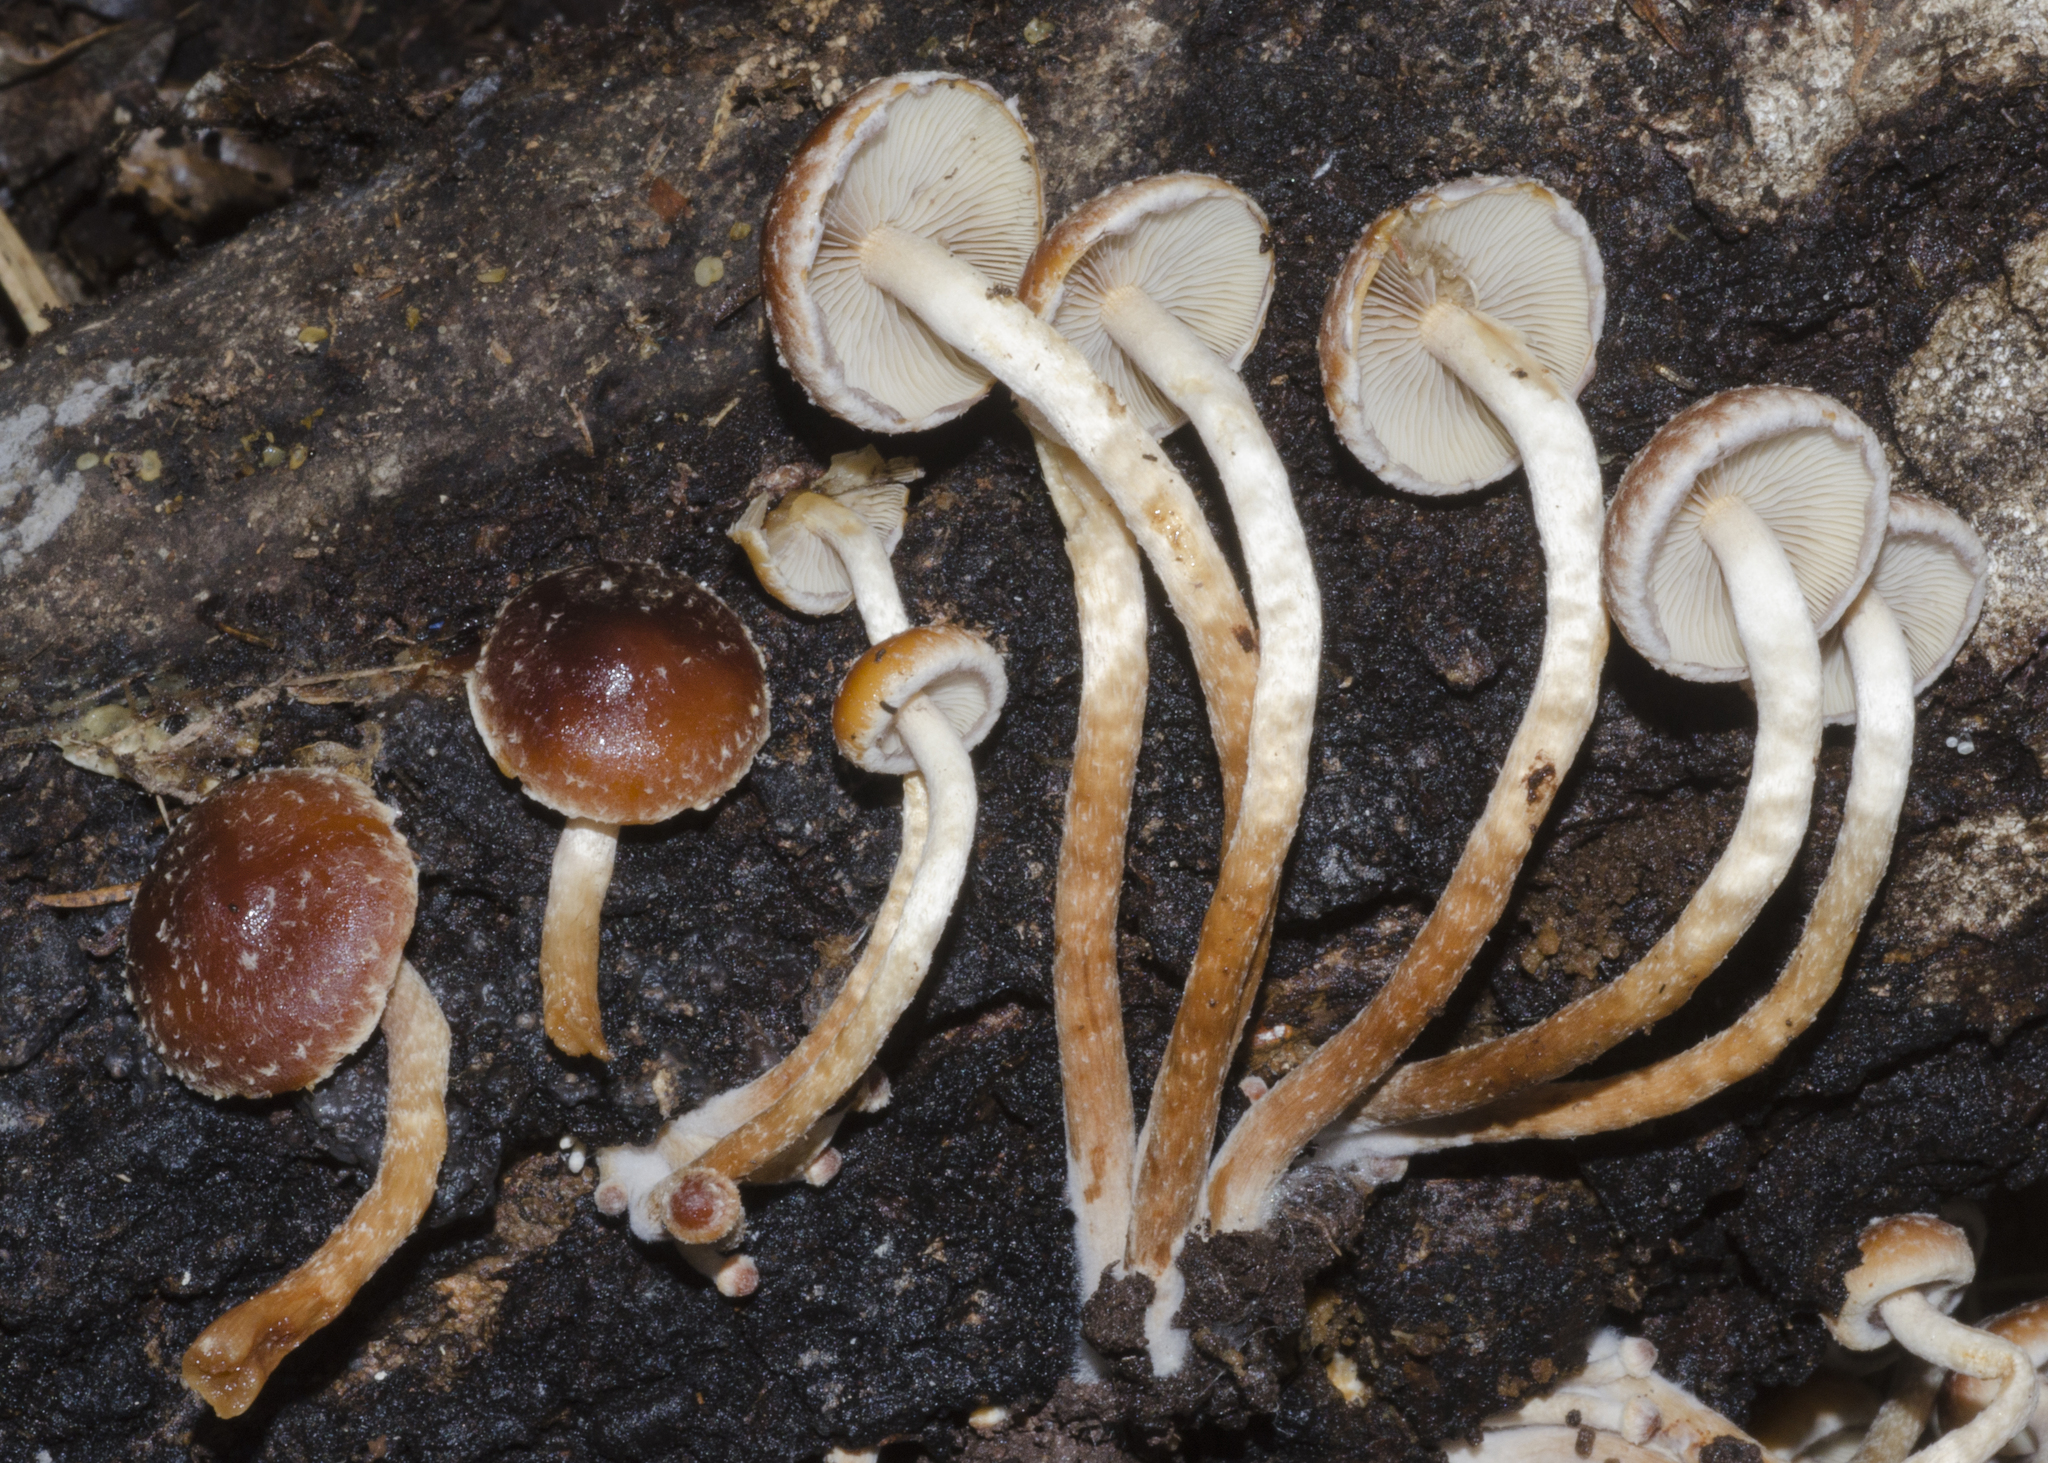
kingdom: Fungi
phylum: Basidiomycota
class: Agaricomycetes
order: Agaricales
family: Strophariaceae
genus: Hypholoma
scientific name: Hypholoma brunneum
